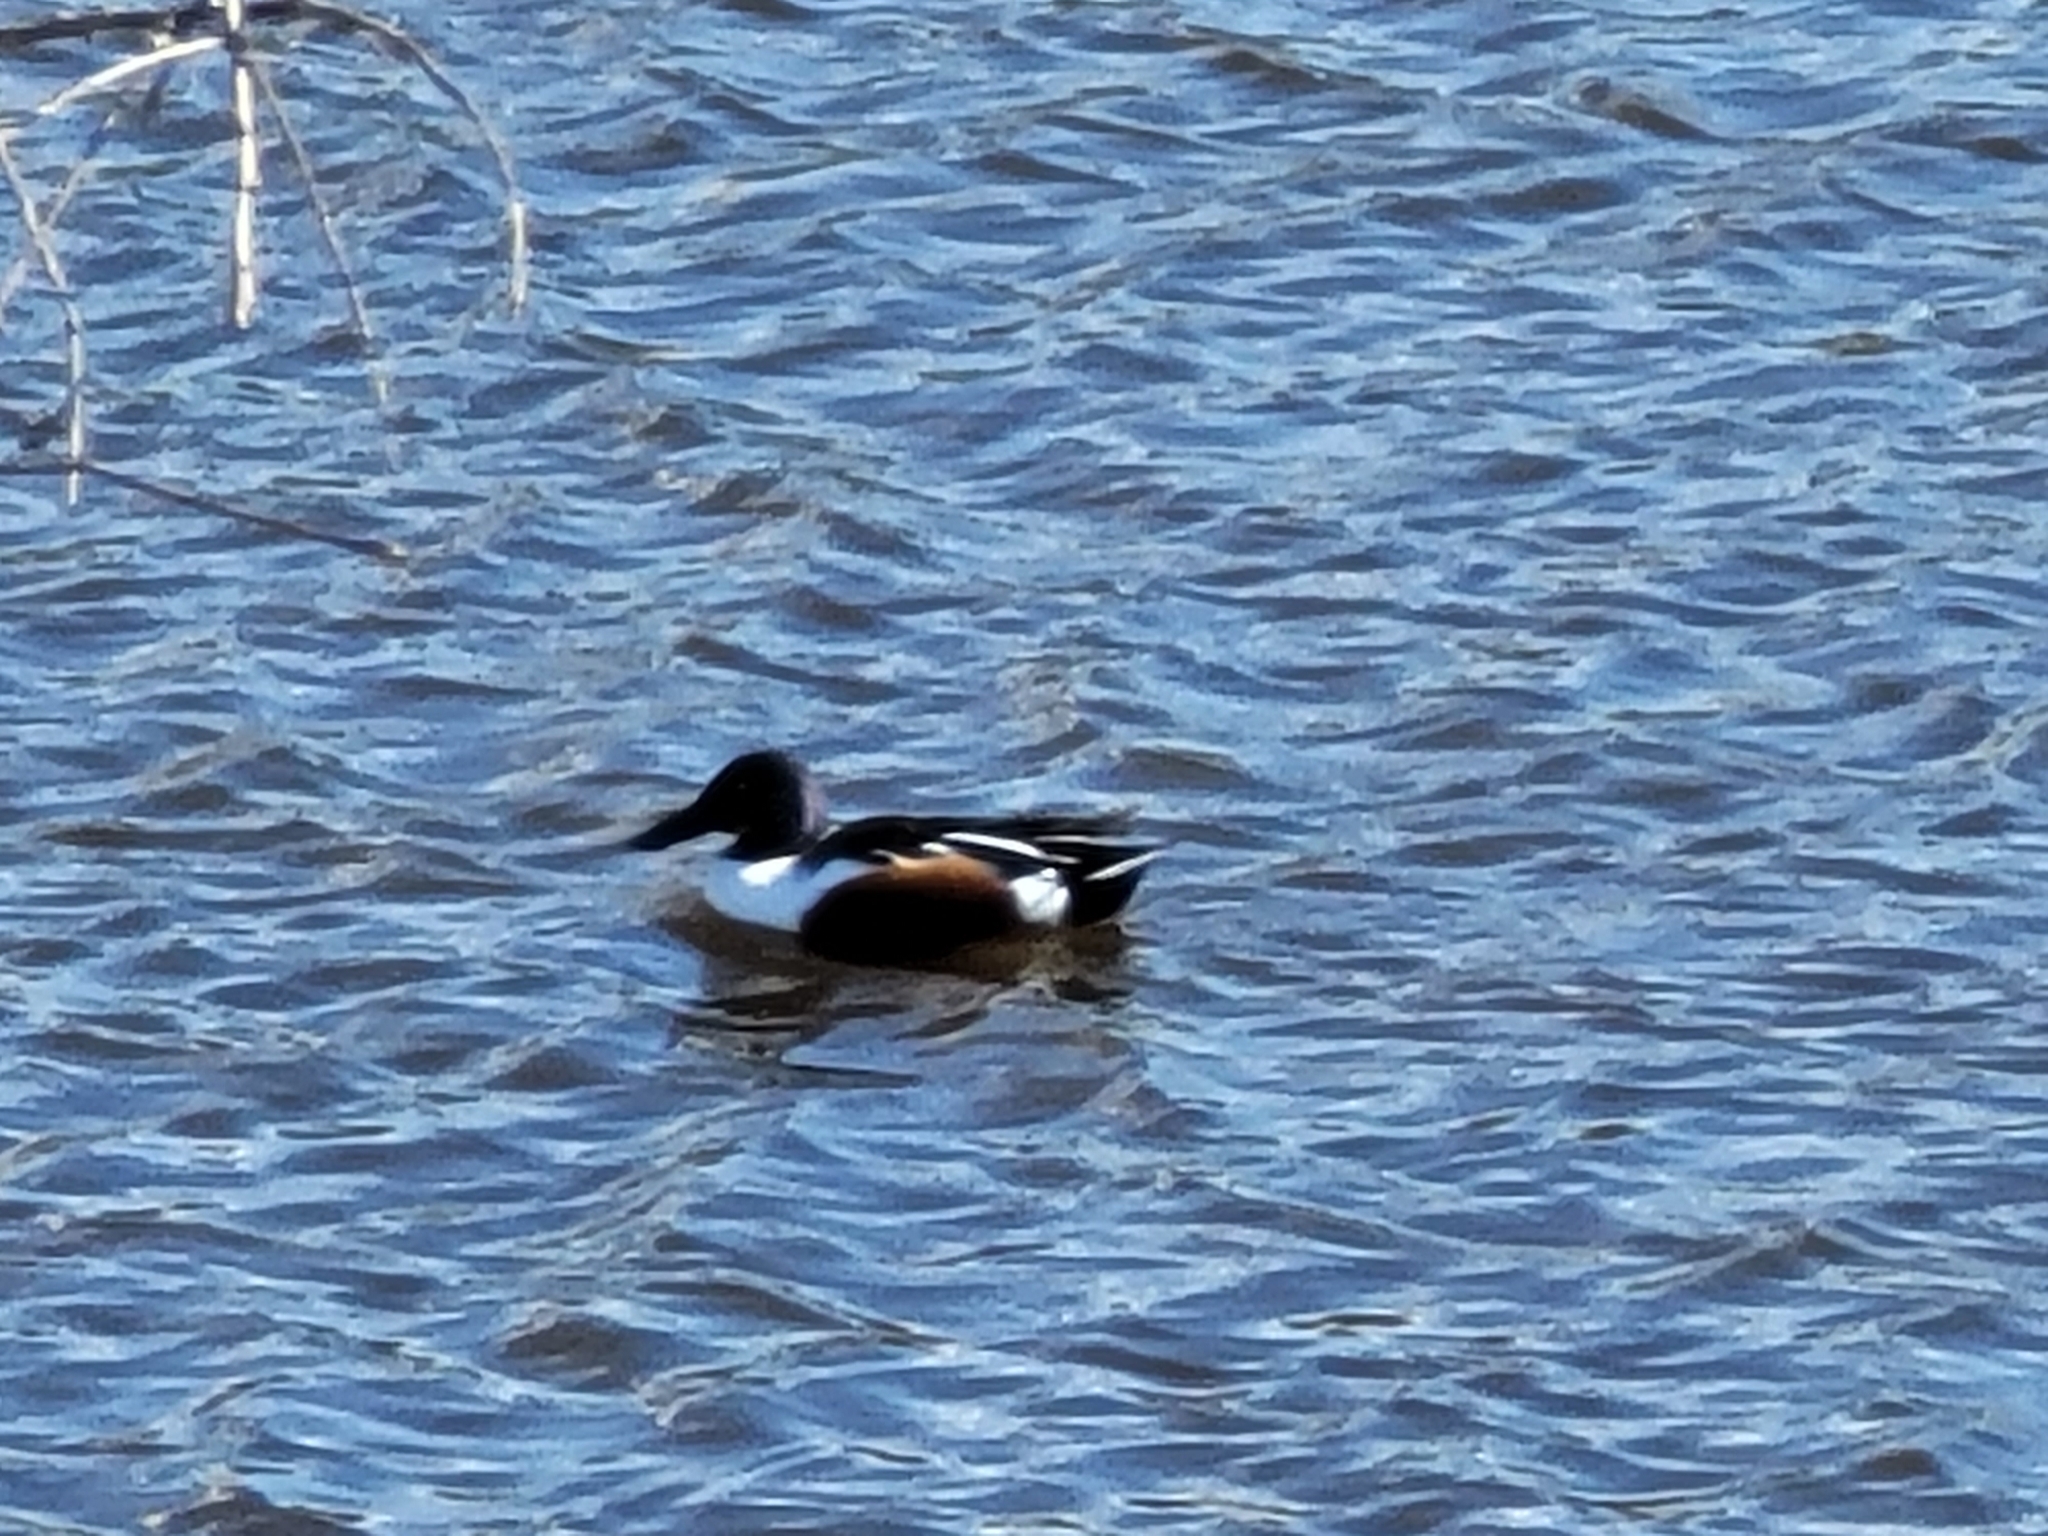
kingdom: Animalia
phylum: Chordata
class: Aves
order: Anseriformes
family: Anatidae
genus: Spatula
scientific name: Spatula clypeata
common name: Northern shoveler
